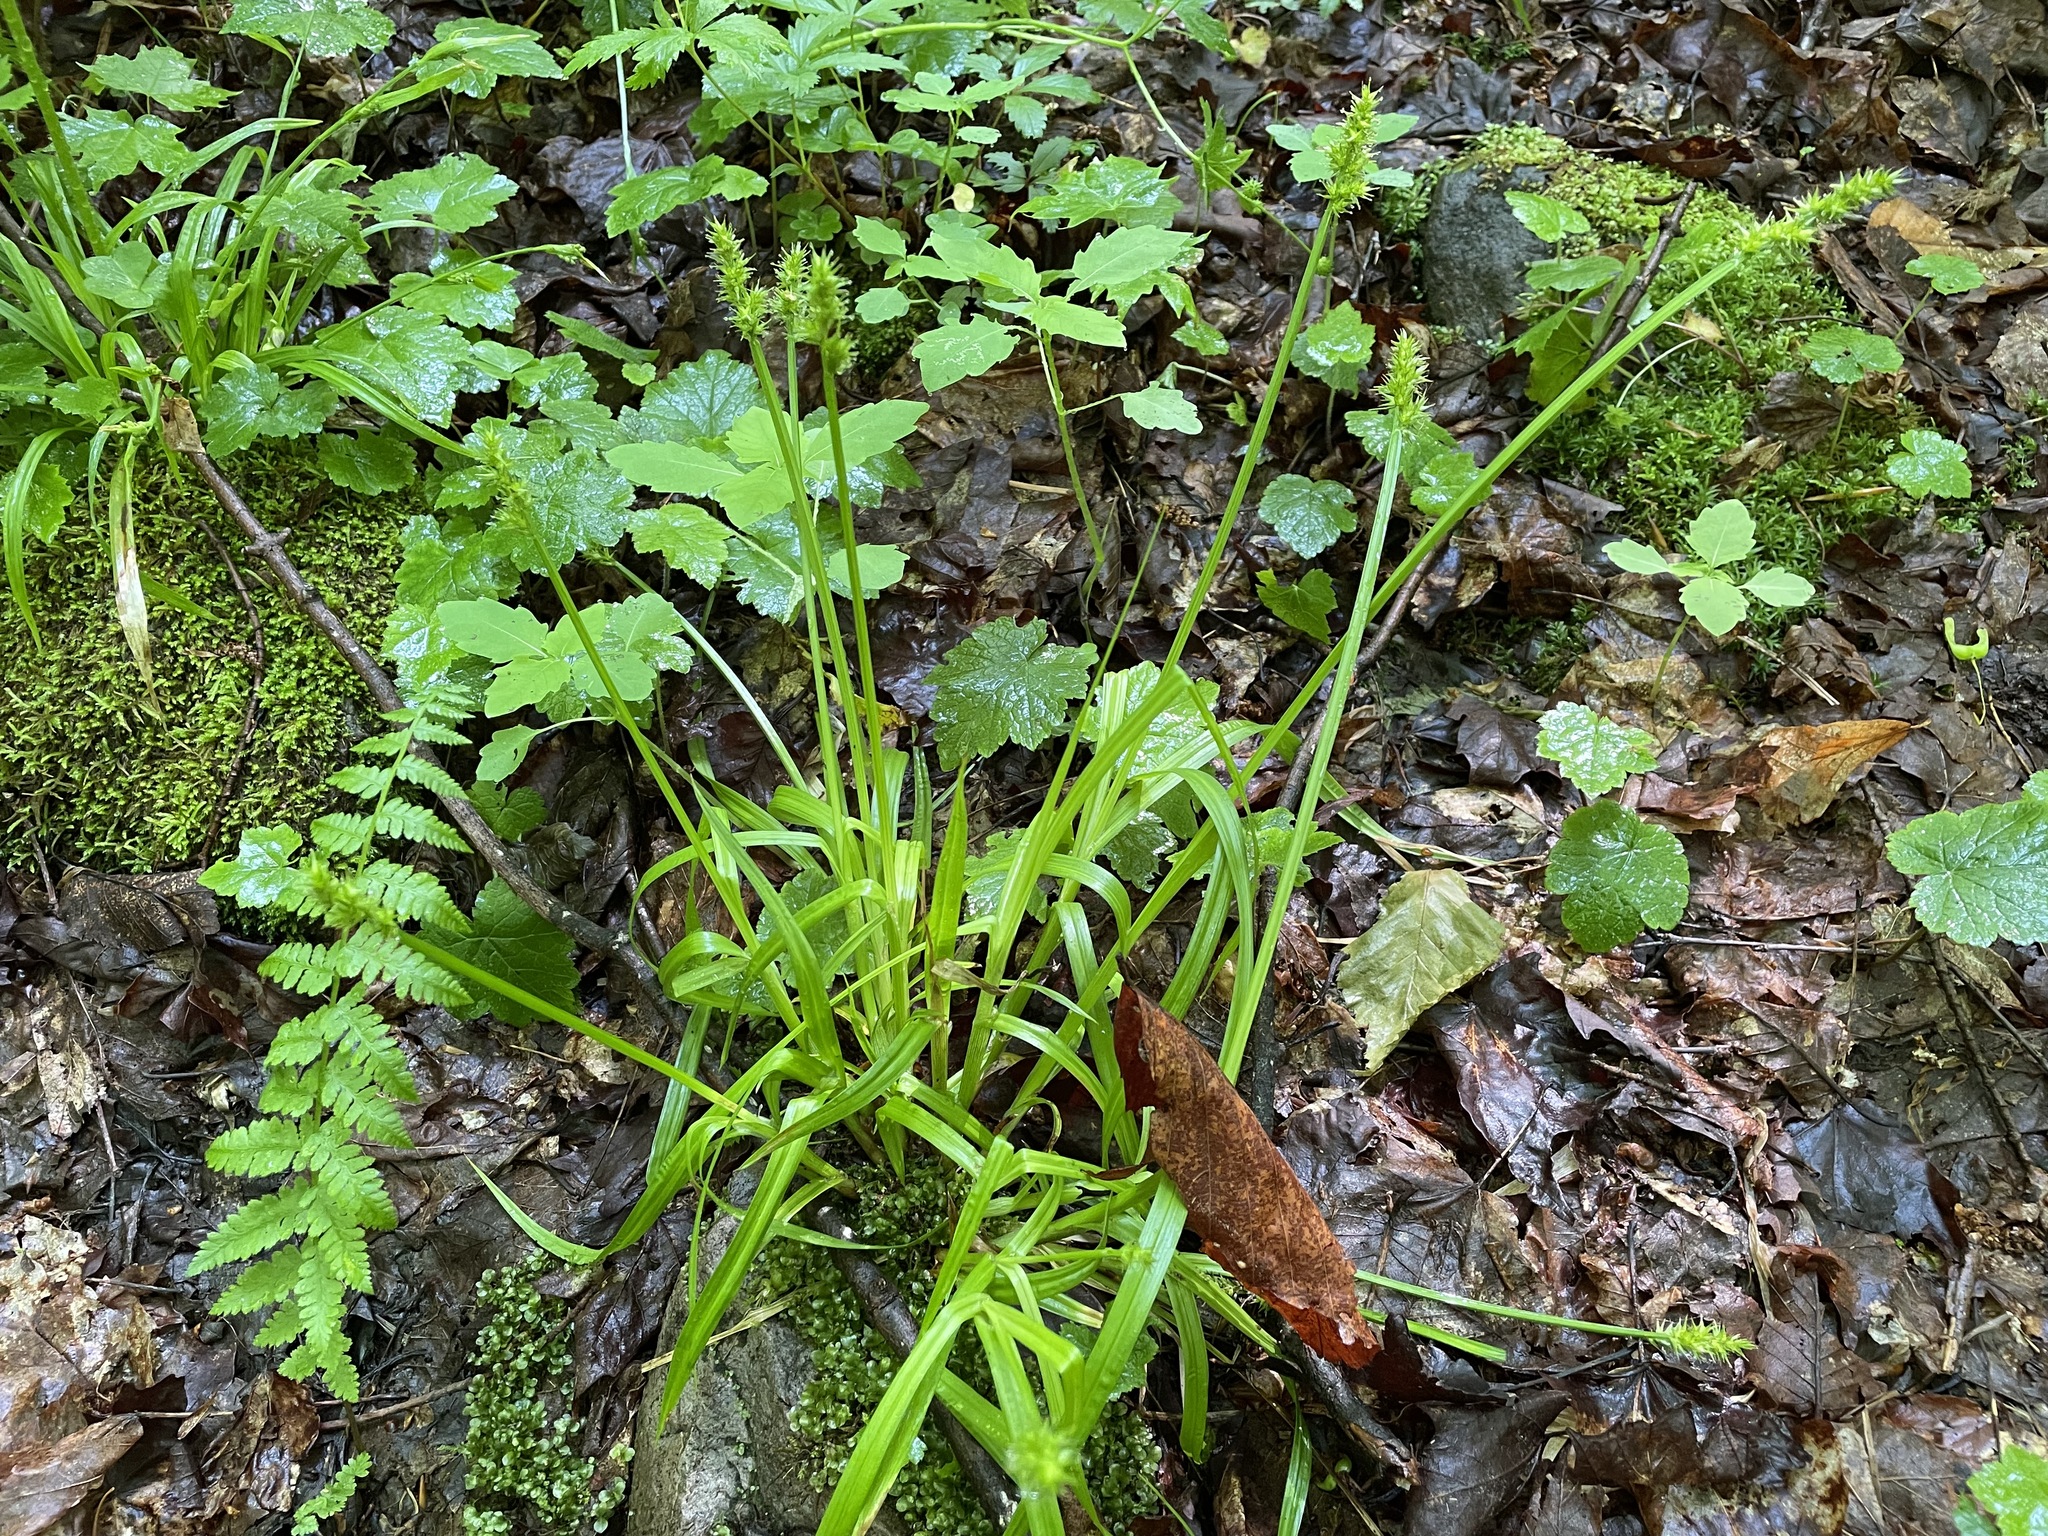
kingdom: Plantae
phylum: Tracheophyta
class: Liliopsida
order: Poales
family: Cyperaceae
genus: Carex
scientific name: Carex stipata
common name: Awl-fruited sedge
